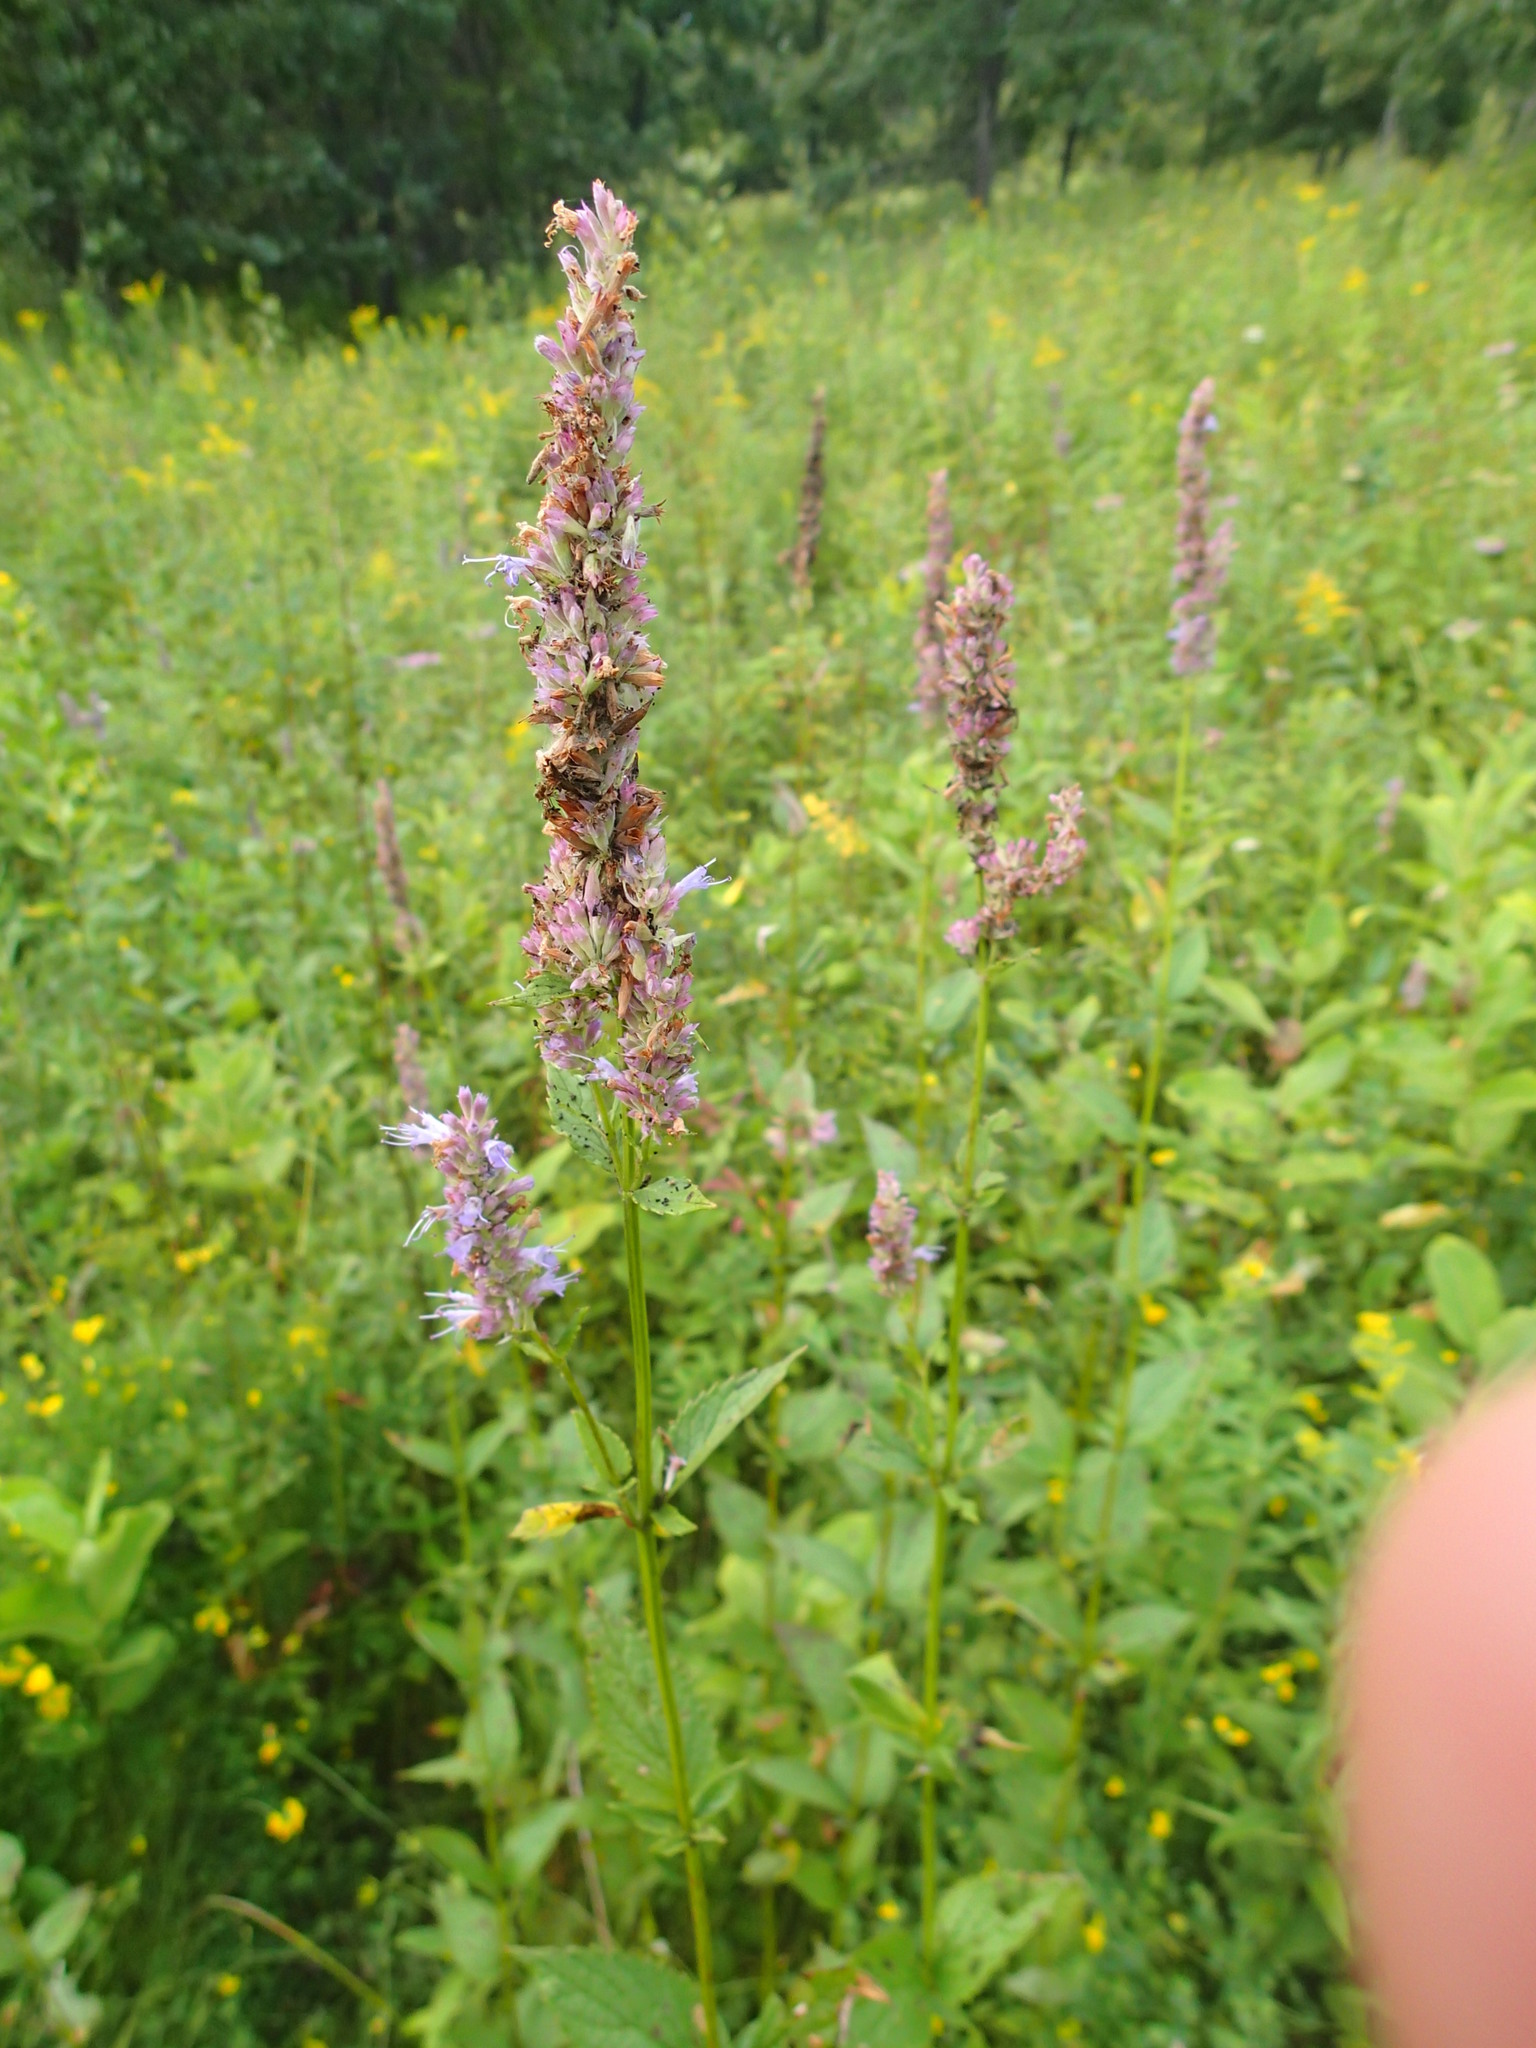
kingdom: Plantae
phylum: Tracheophyta
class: Magnoliopsida
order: Lamiales
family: Lamiaceae
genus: Agastache
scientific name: Agastache foeniculum
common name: Anise hyssop
